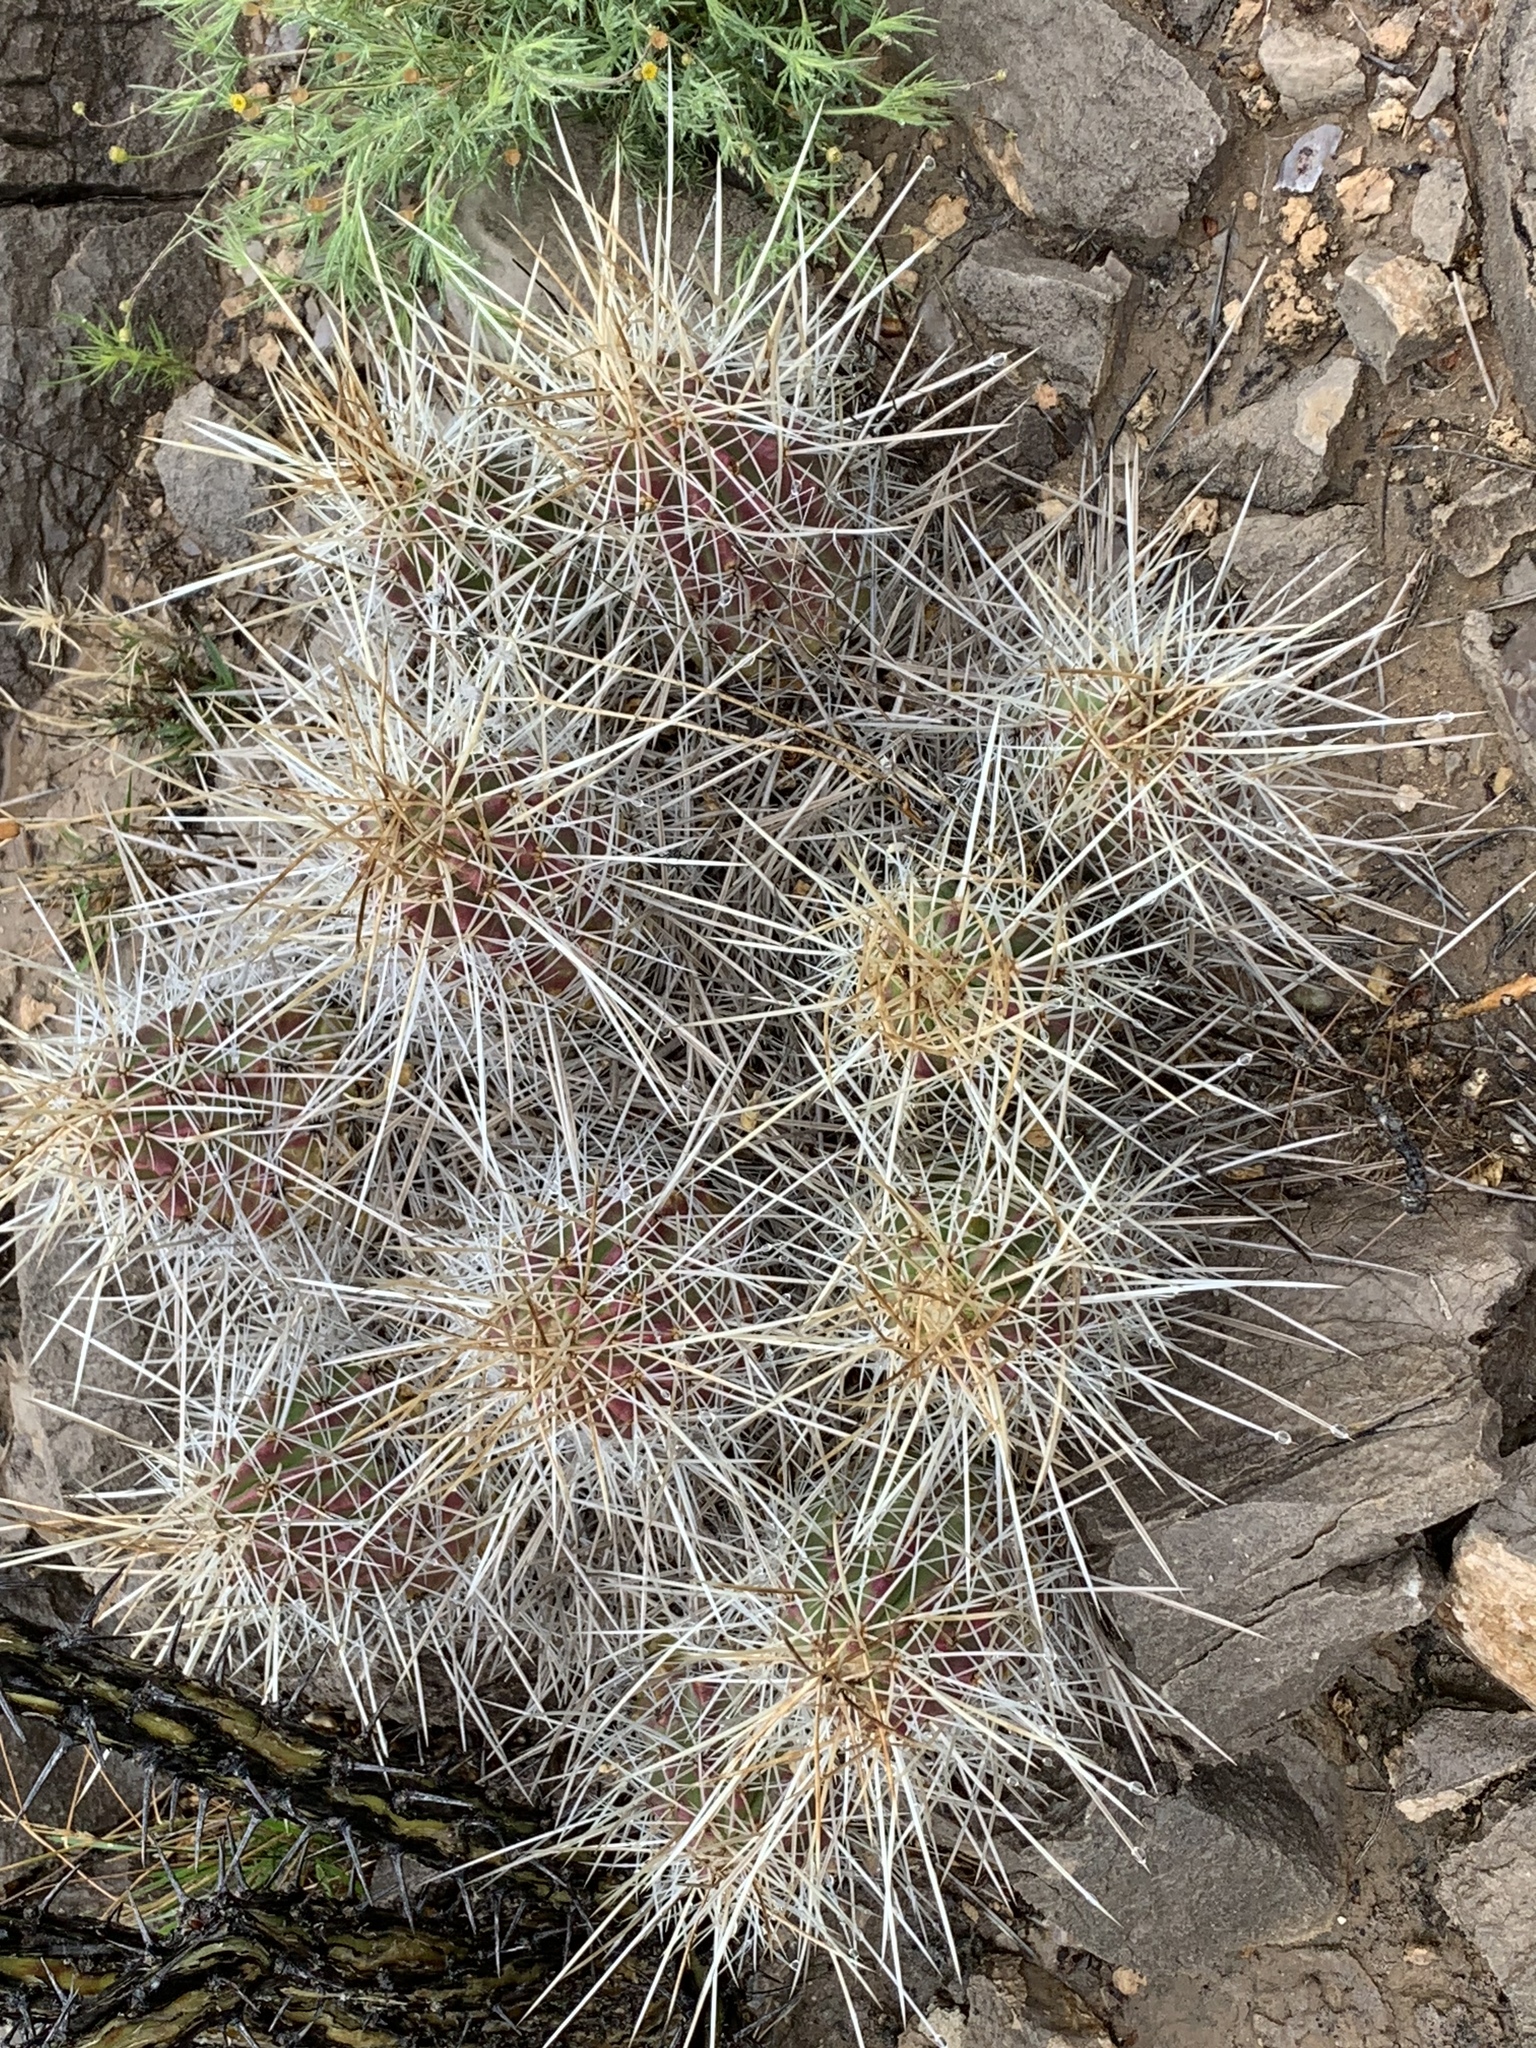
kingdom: Plantae
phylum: Tracheophyta
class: Magnoliopsida
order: Caryophyllales
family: Cactaceae
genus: Echinocereus
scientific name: Echinocereus stramineus
